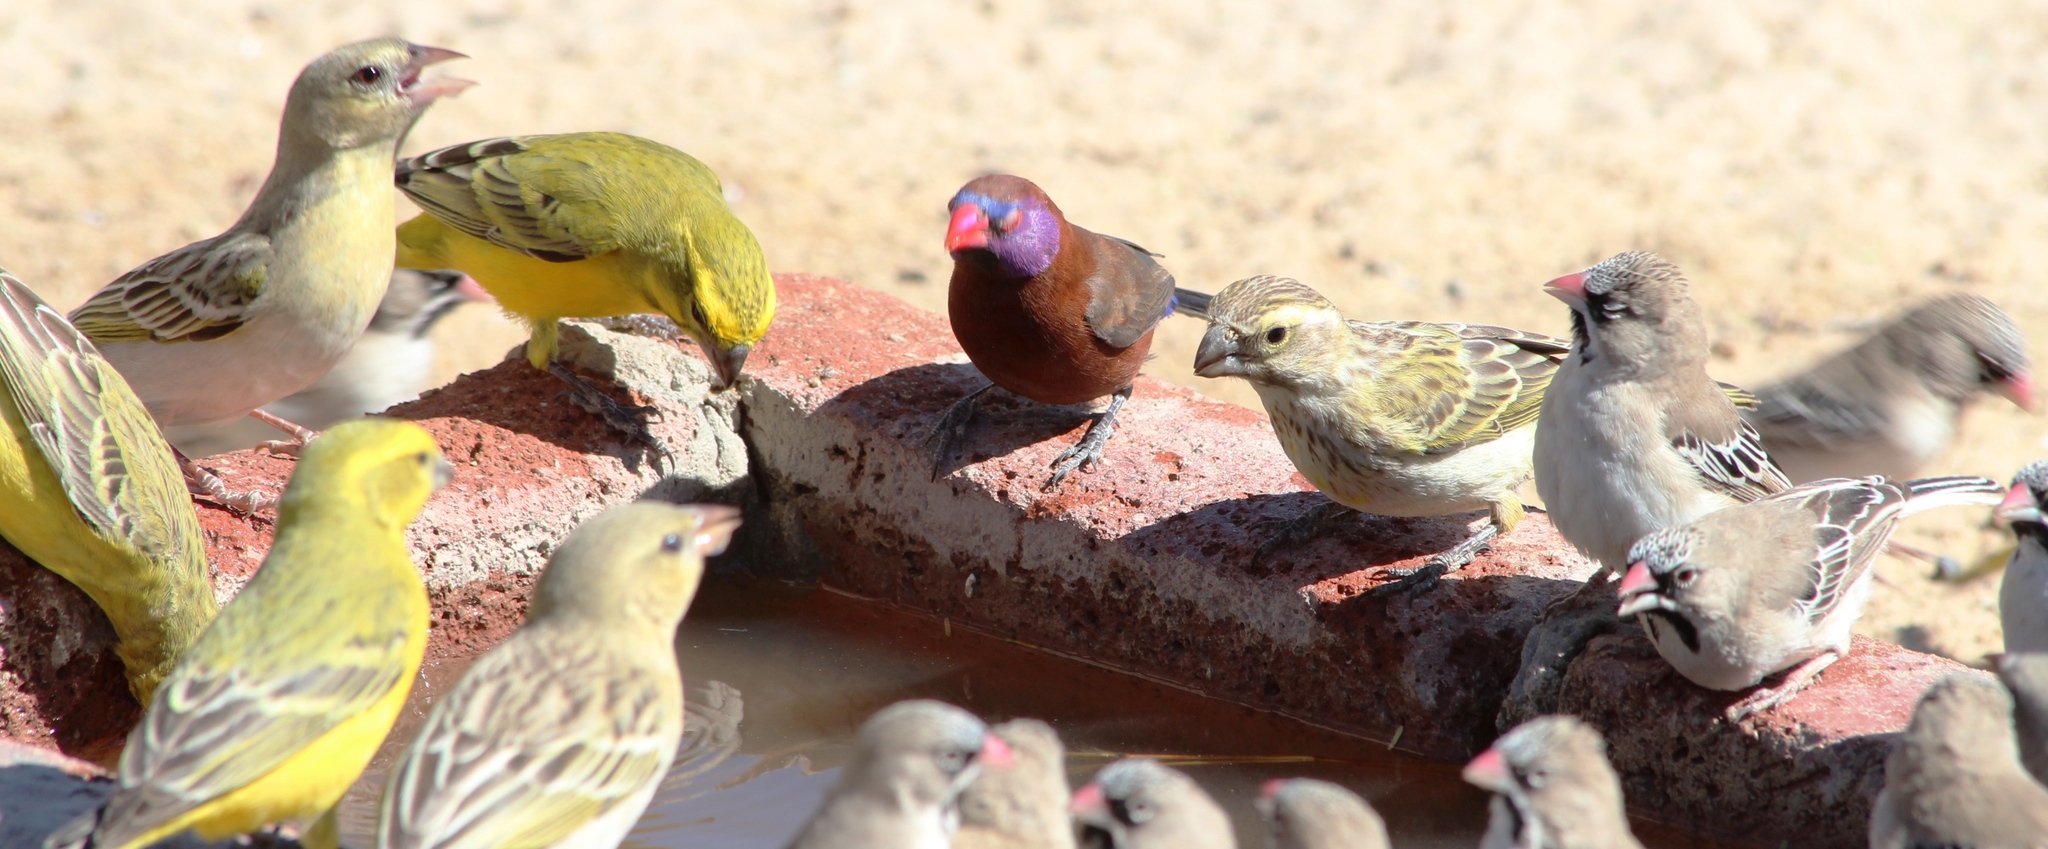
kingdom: Animalia
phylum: Chordata
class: Aves
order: Passeriformes
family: Estrildidae
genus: Uraeginthus
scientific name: Uraeginthus granatinus
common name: Violet-eared waxbill
